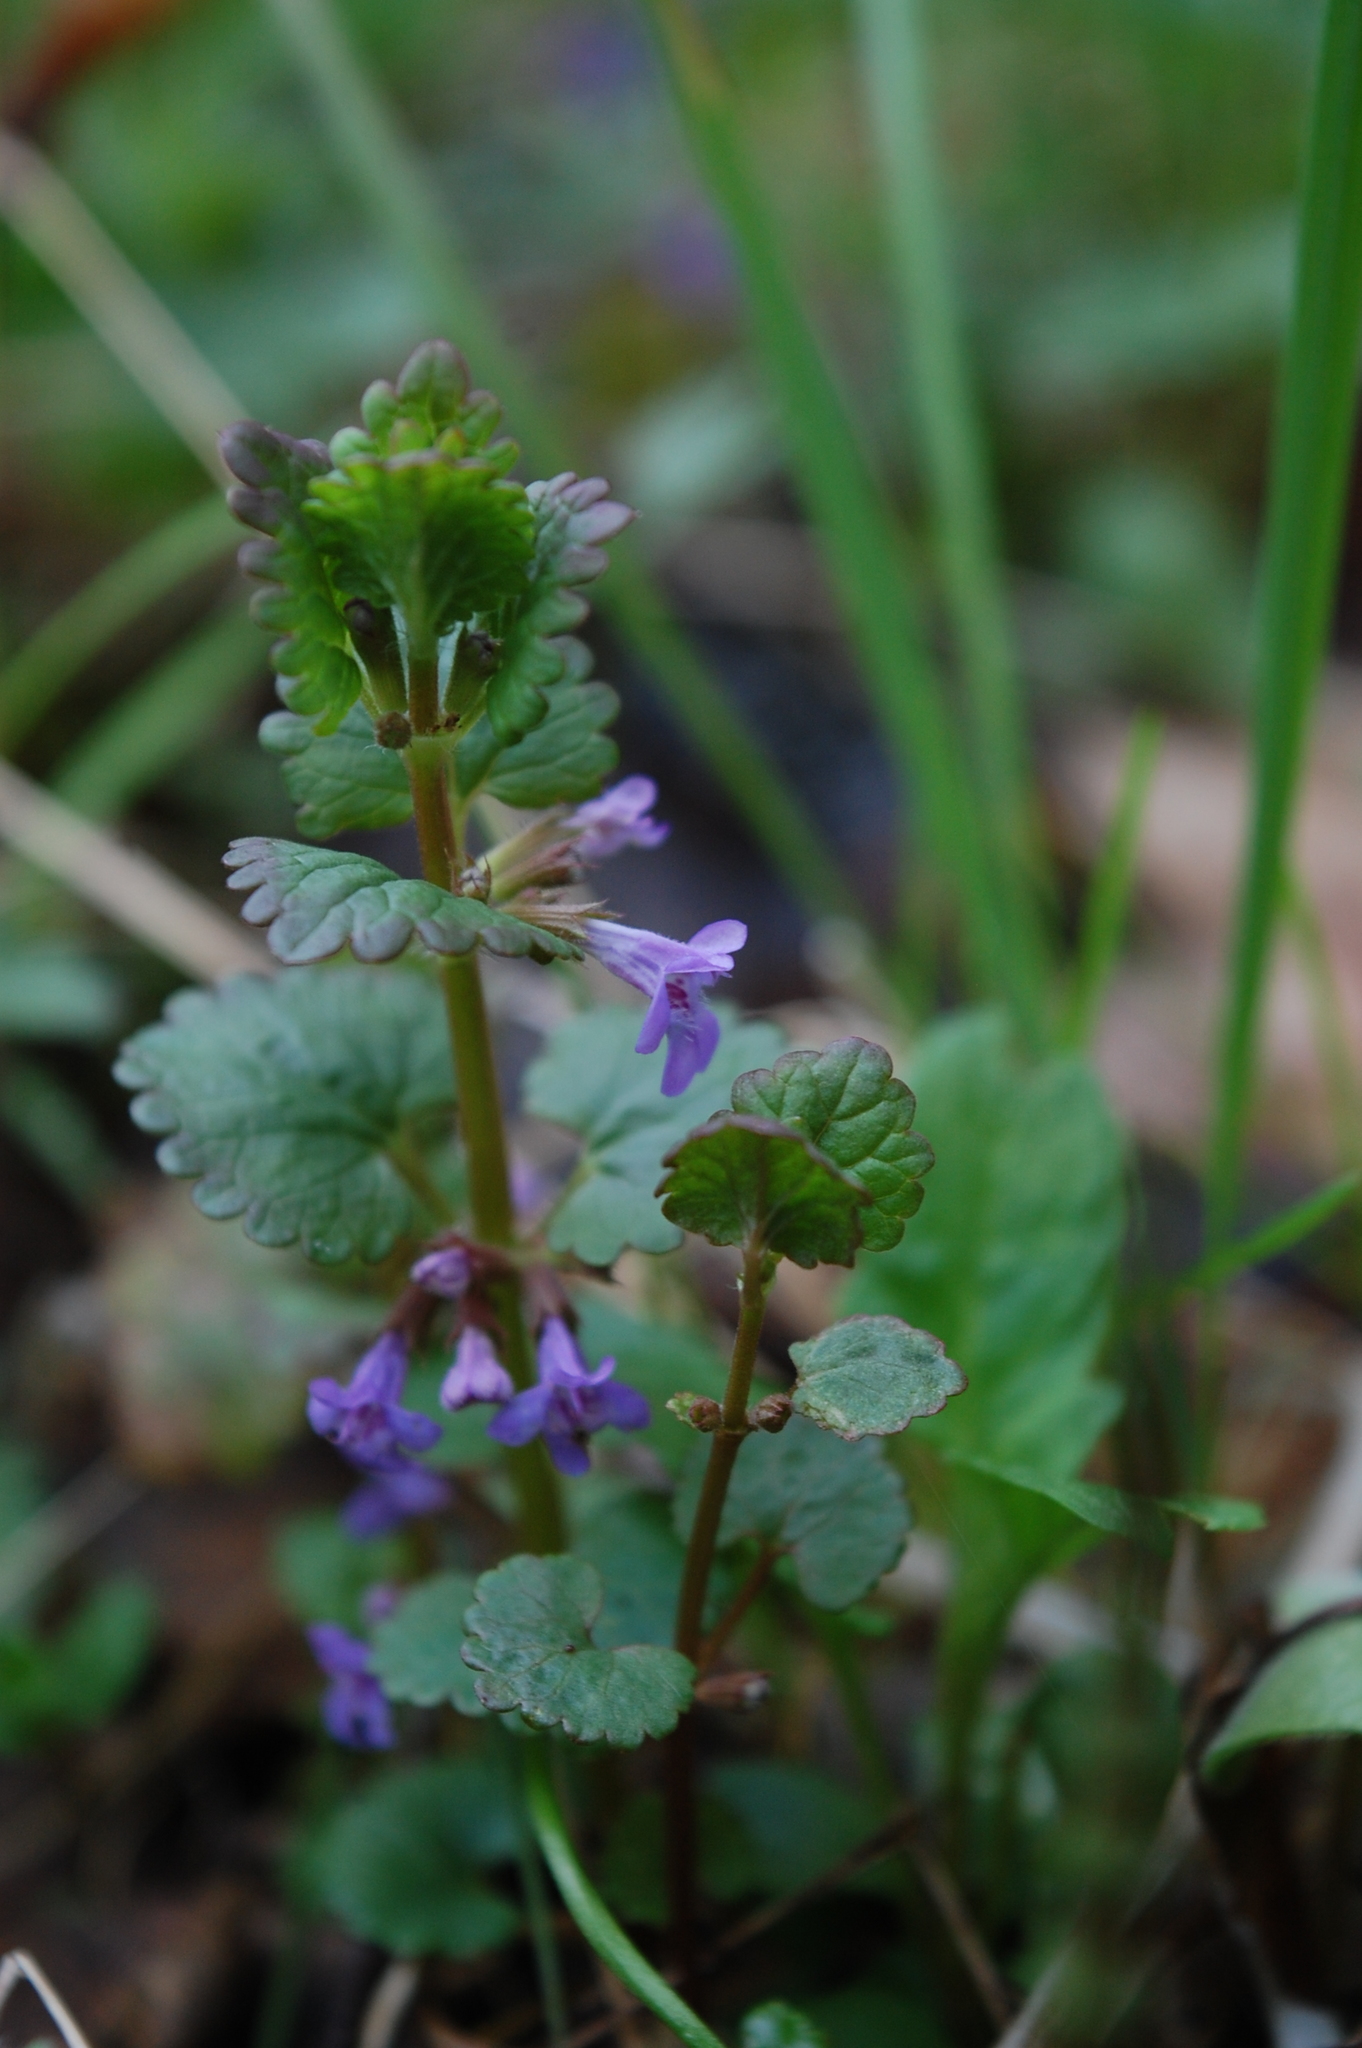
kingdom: Plantae
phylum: Tracheophyta
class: Magnoliopsida
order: Lamiales
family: Lamiaceae
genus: Glechoma
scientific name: Glechoma hederacea
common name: Ground ivy
